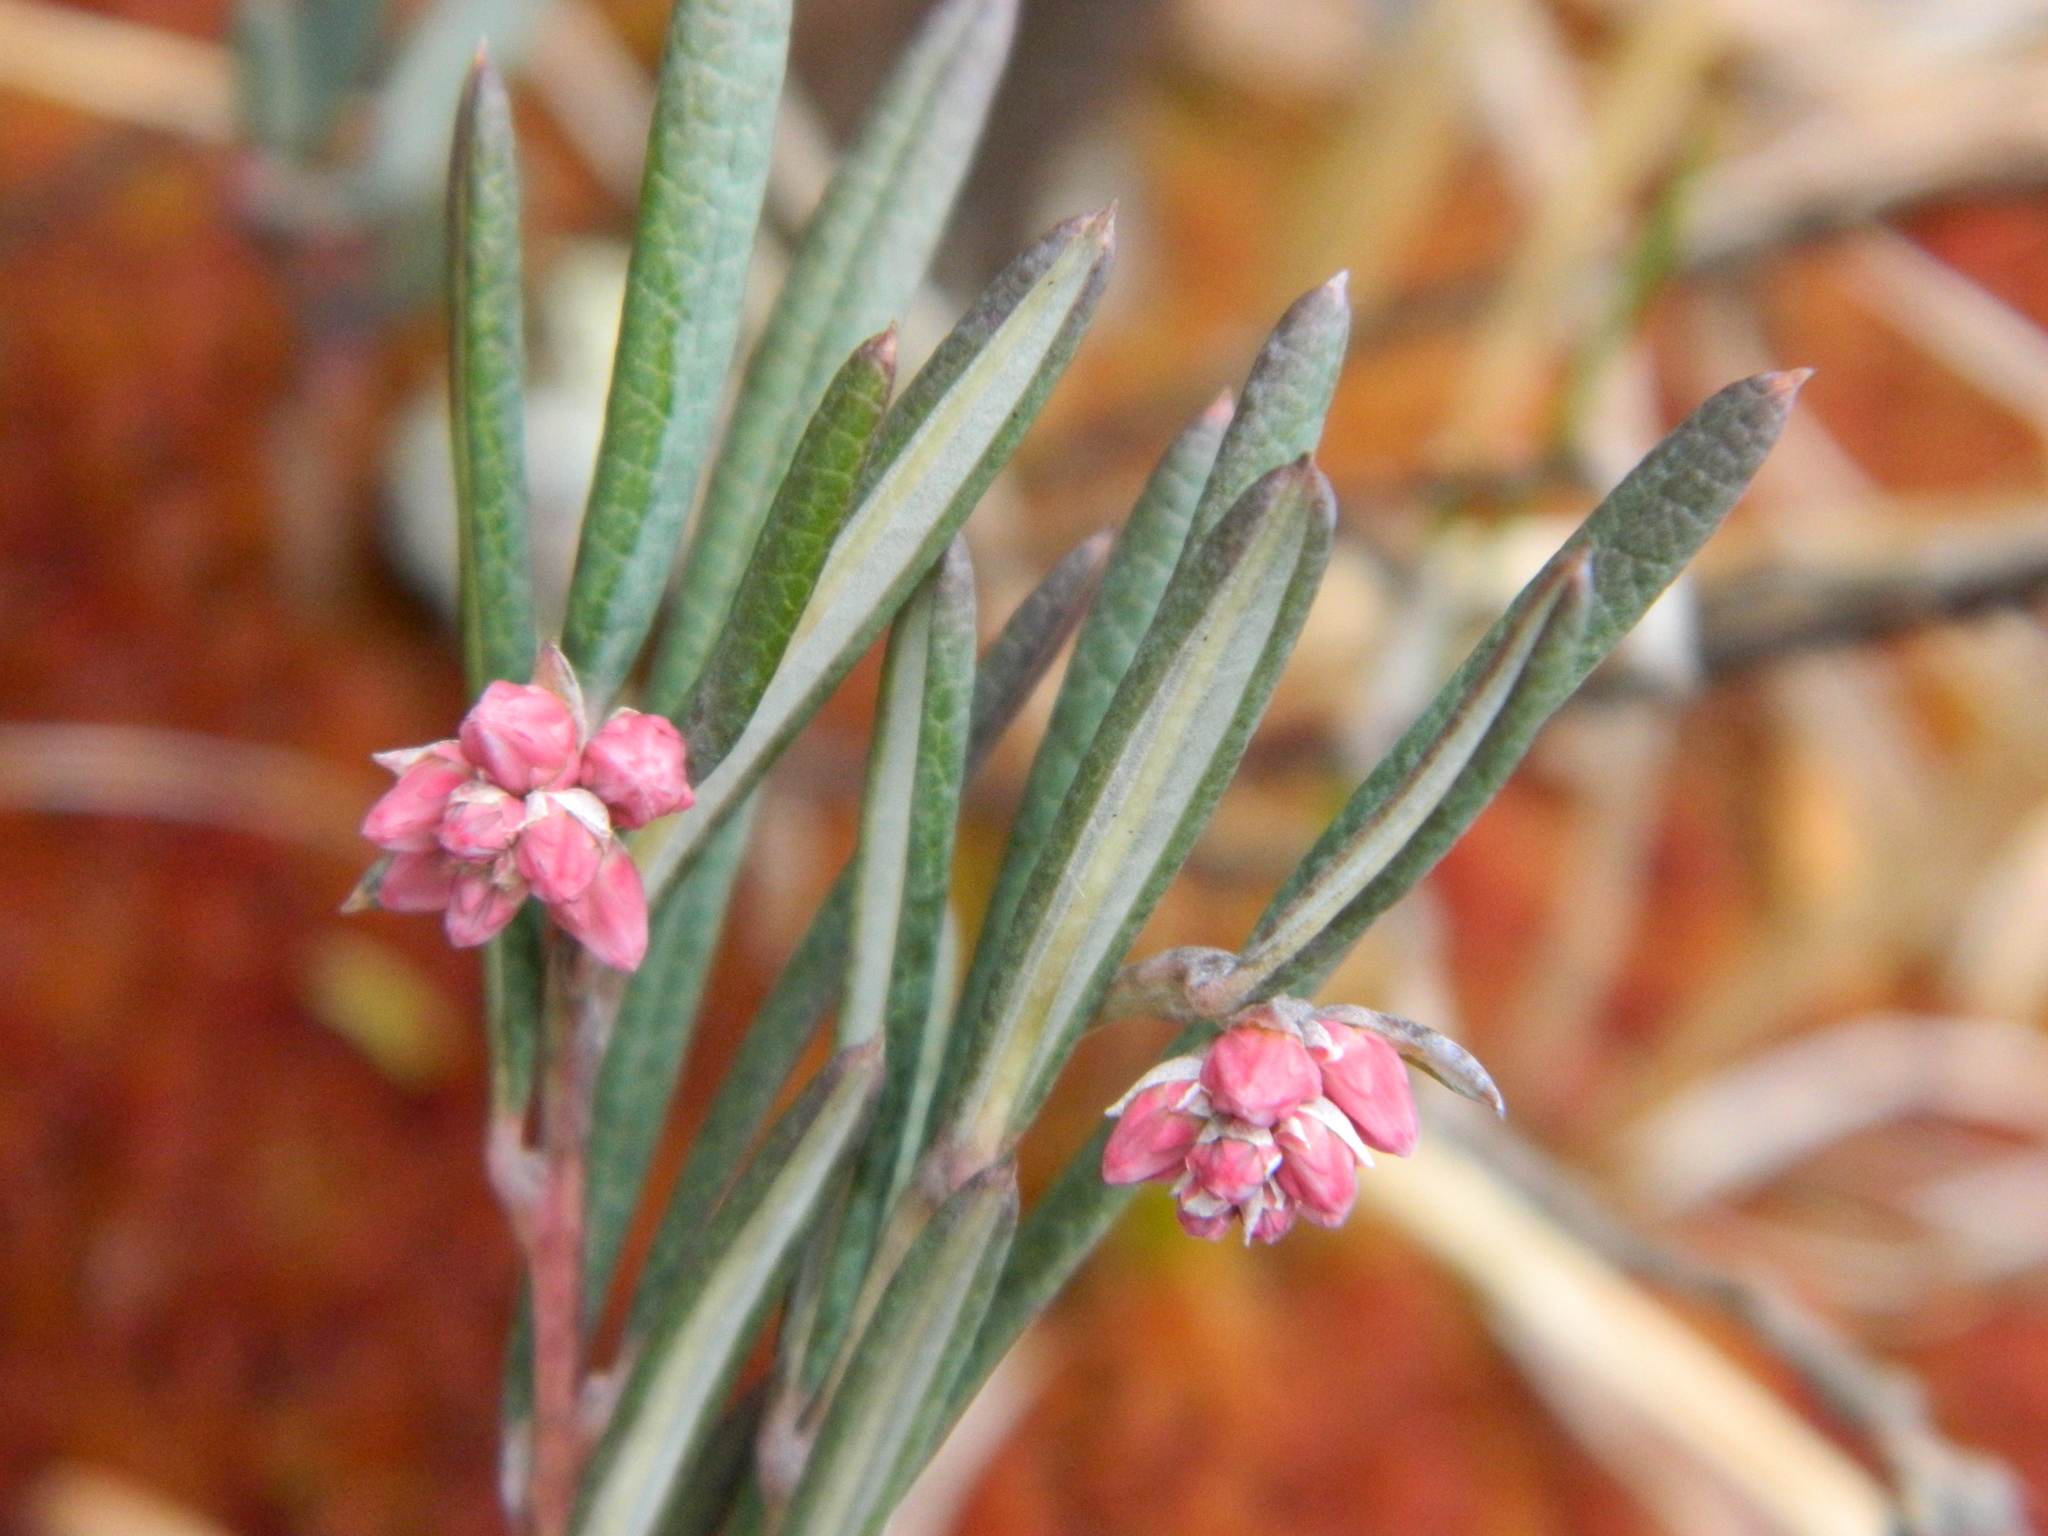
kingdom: Plantae
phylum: Tracheophyta
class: Magnoliopsida
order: Ericales
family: Ericaceae
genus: Andromeda
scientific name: Andromeda polifolia
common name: Bog-rosemary
